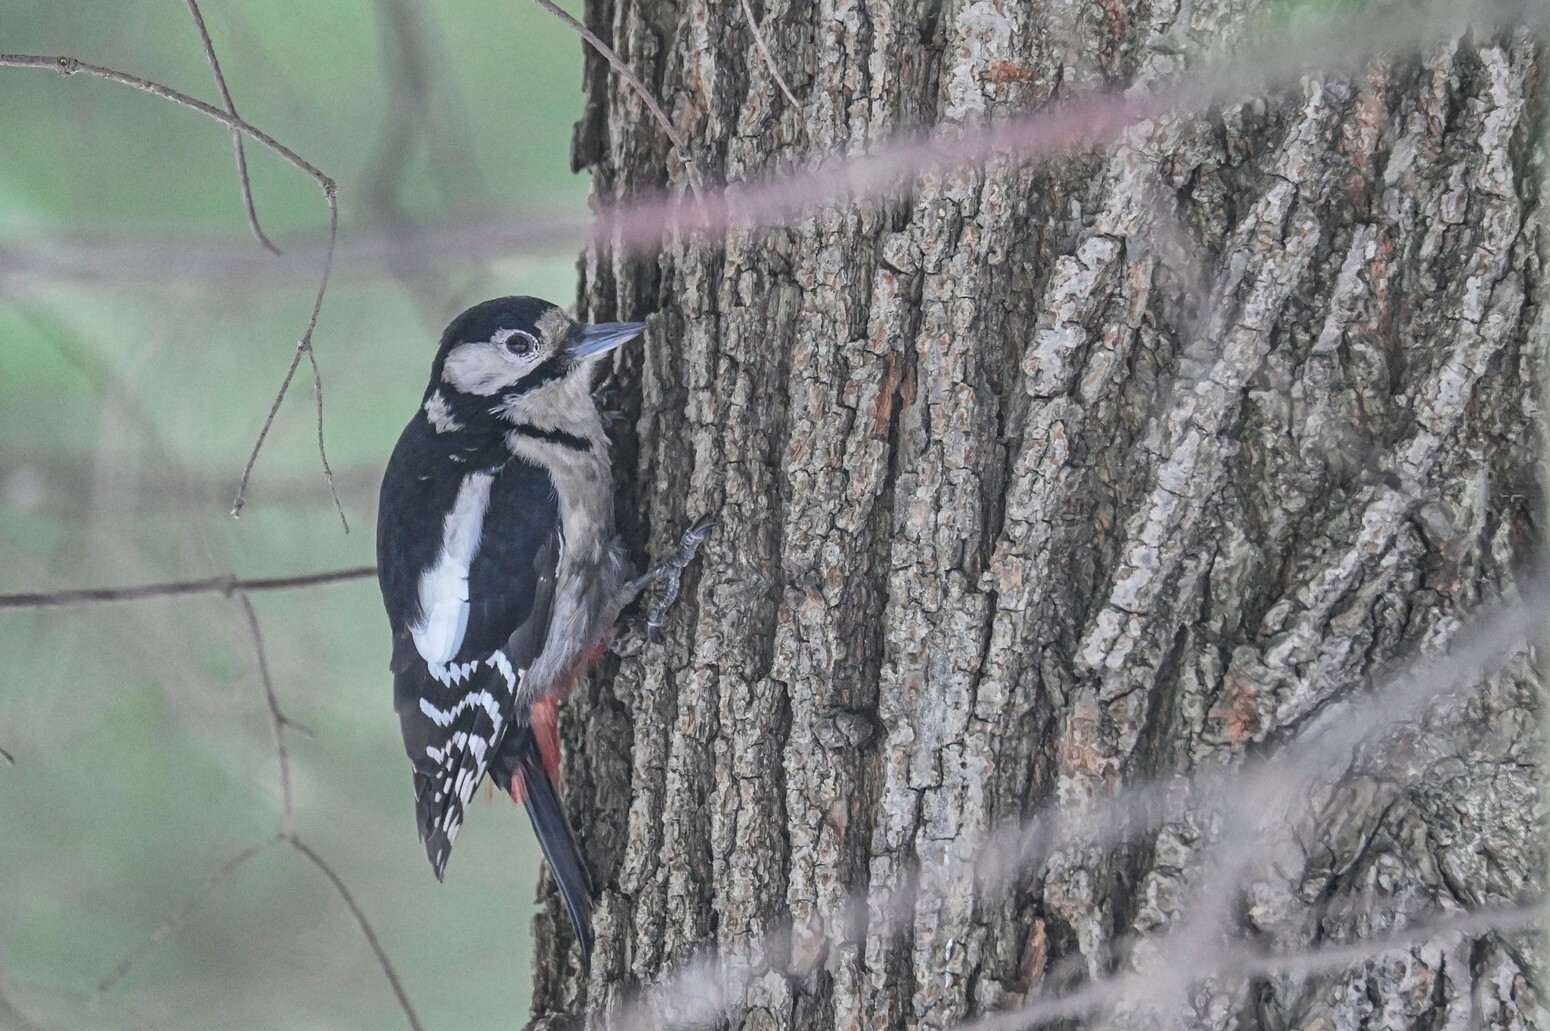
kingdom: Animalia
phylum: Chordata
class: Aves
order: Piciformes
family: Picidae
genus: Dendrocopos
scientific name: Dendrocopos major
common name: Great spotted woodpecker
